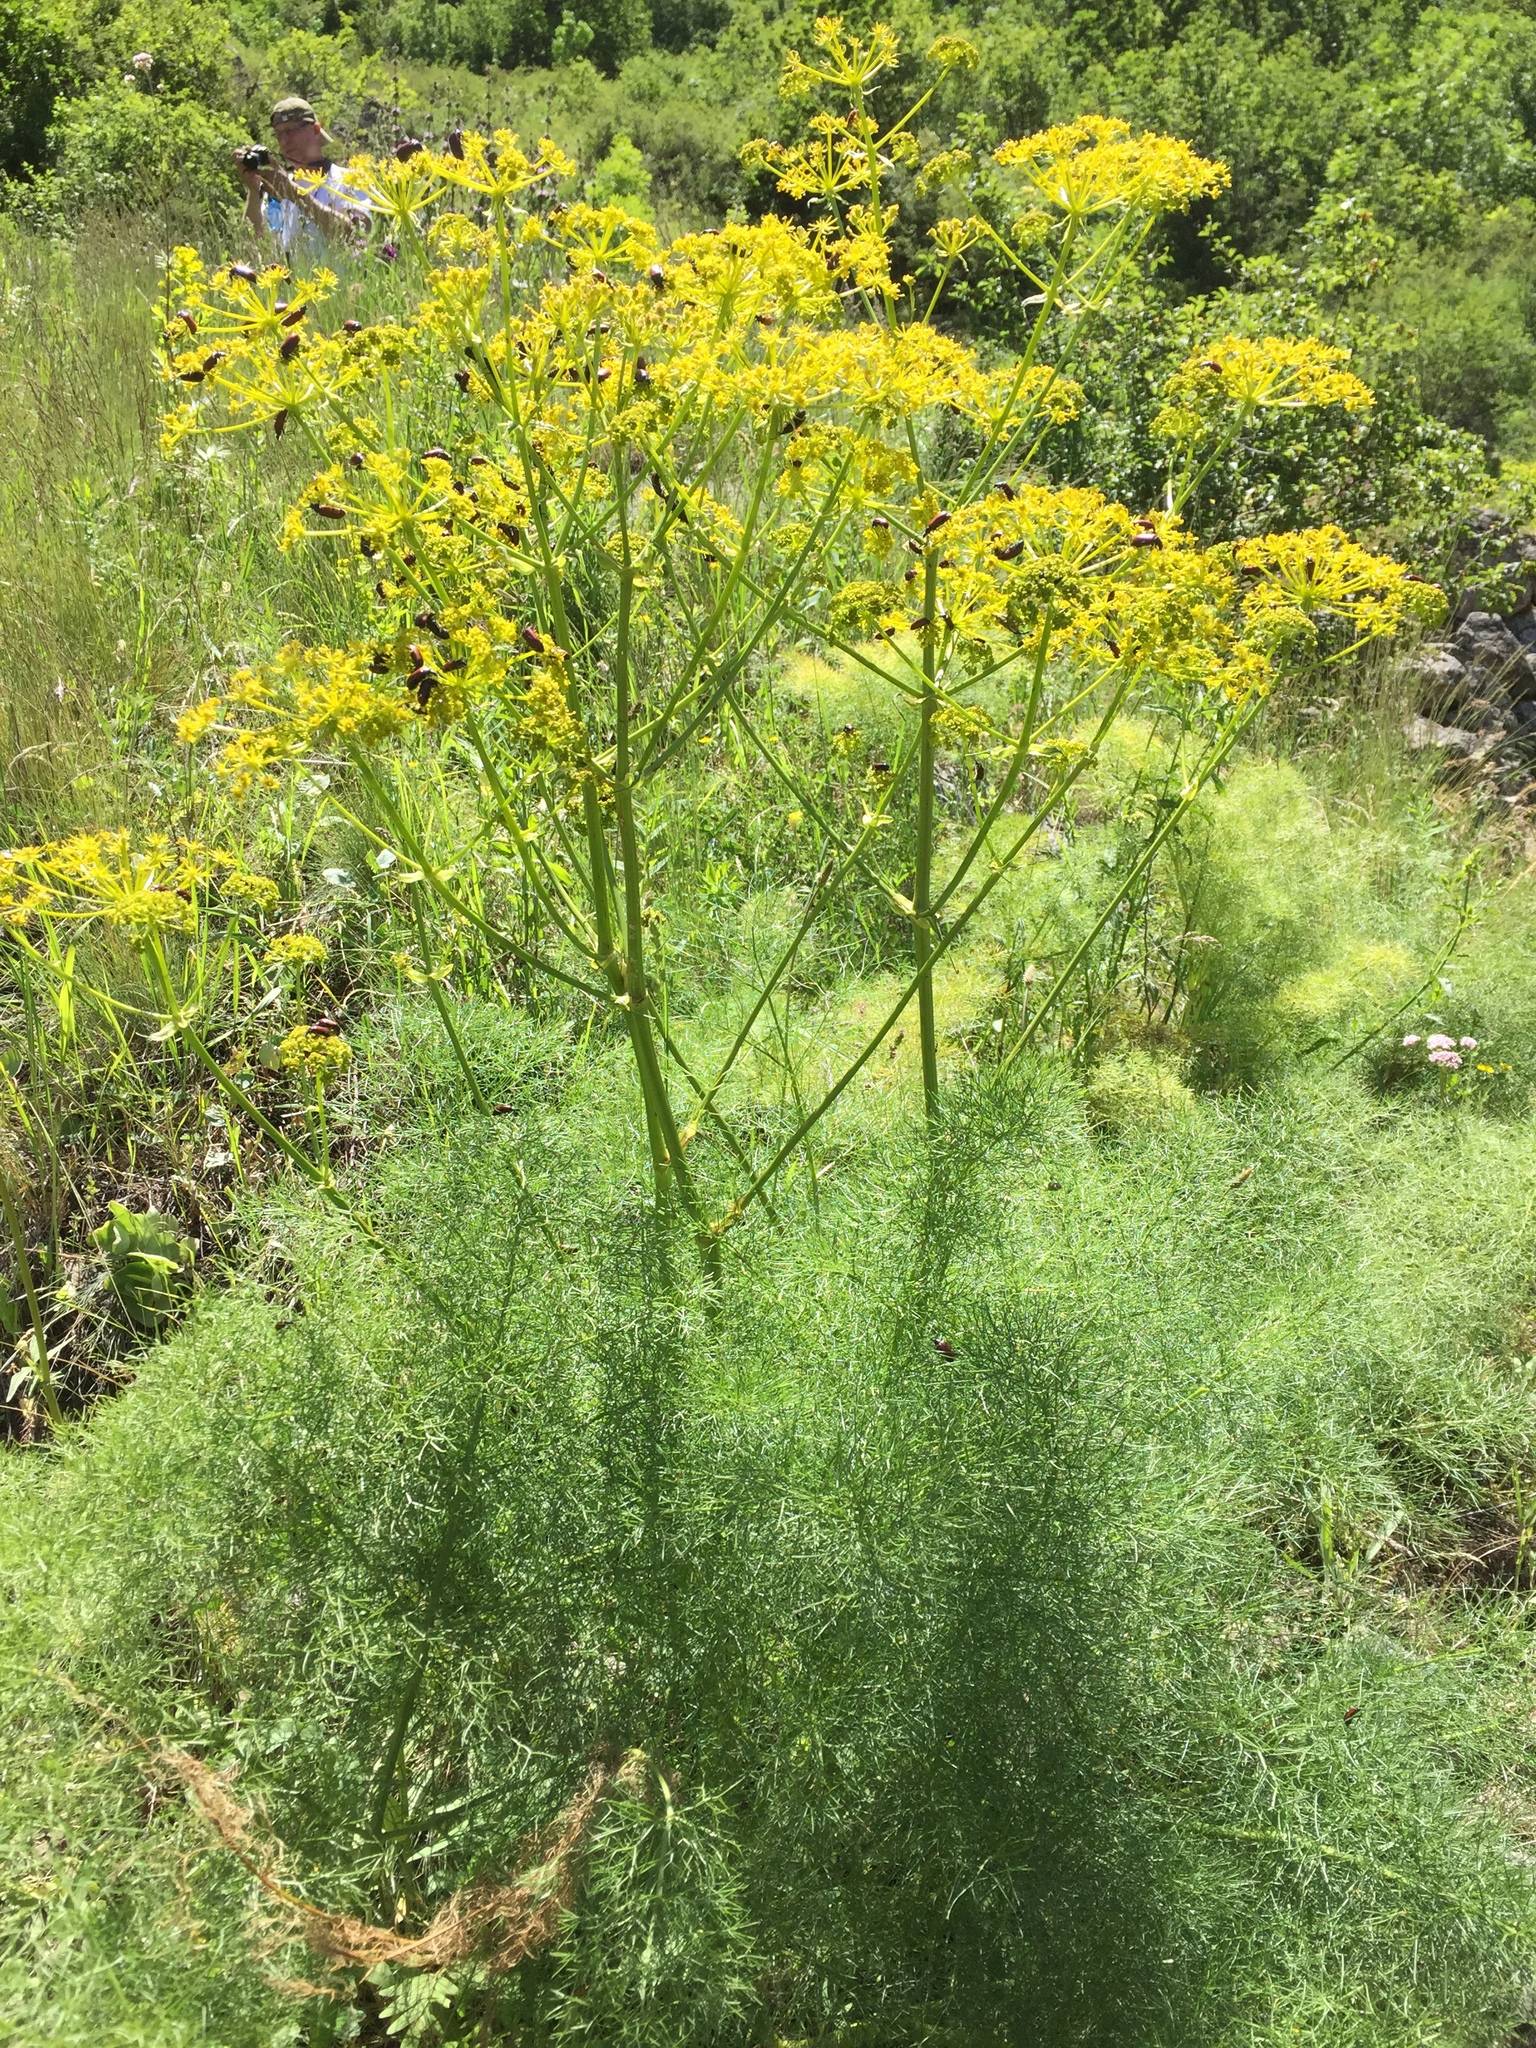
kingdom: Plantae
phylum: Tracheophyta
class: Magnoliopsida
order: Apiales
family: Apiaceae
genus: Foeniculum
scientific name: Foeniculum vulgare
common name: Fennel
